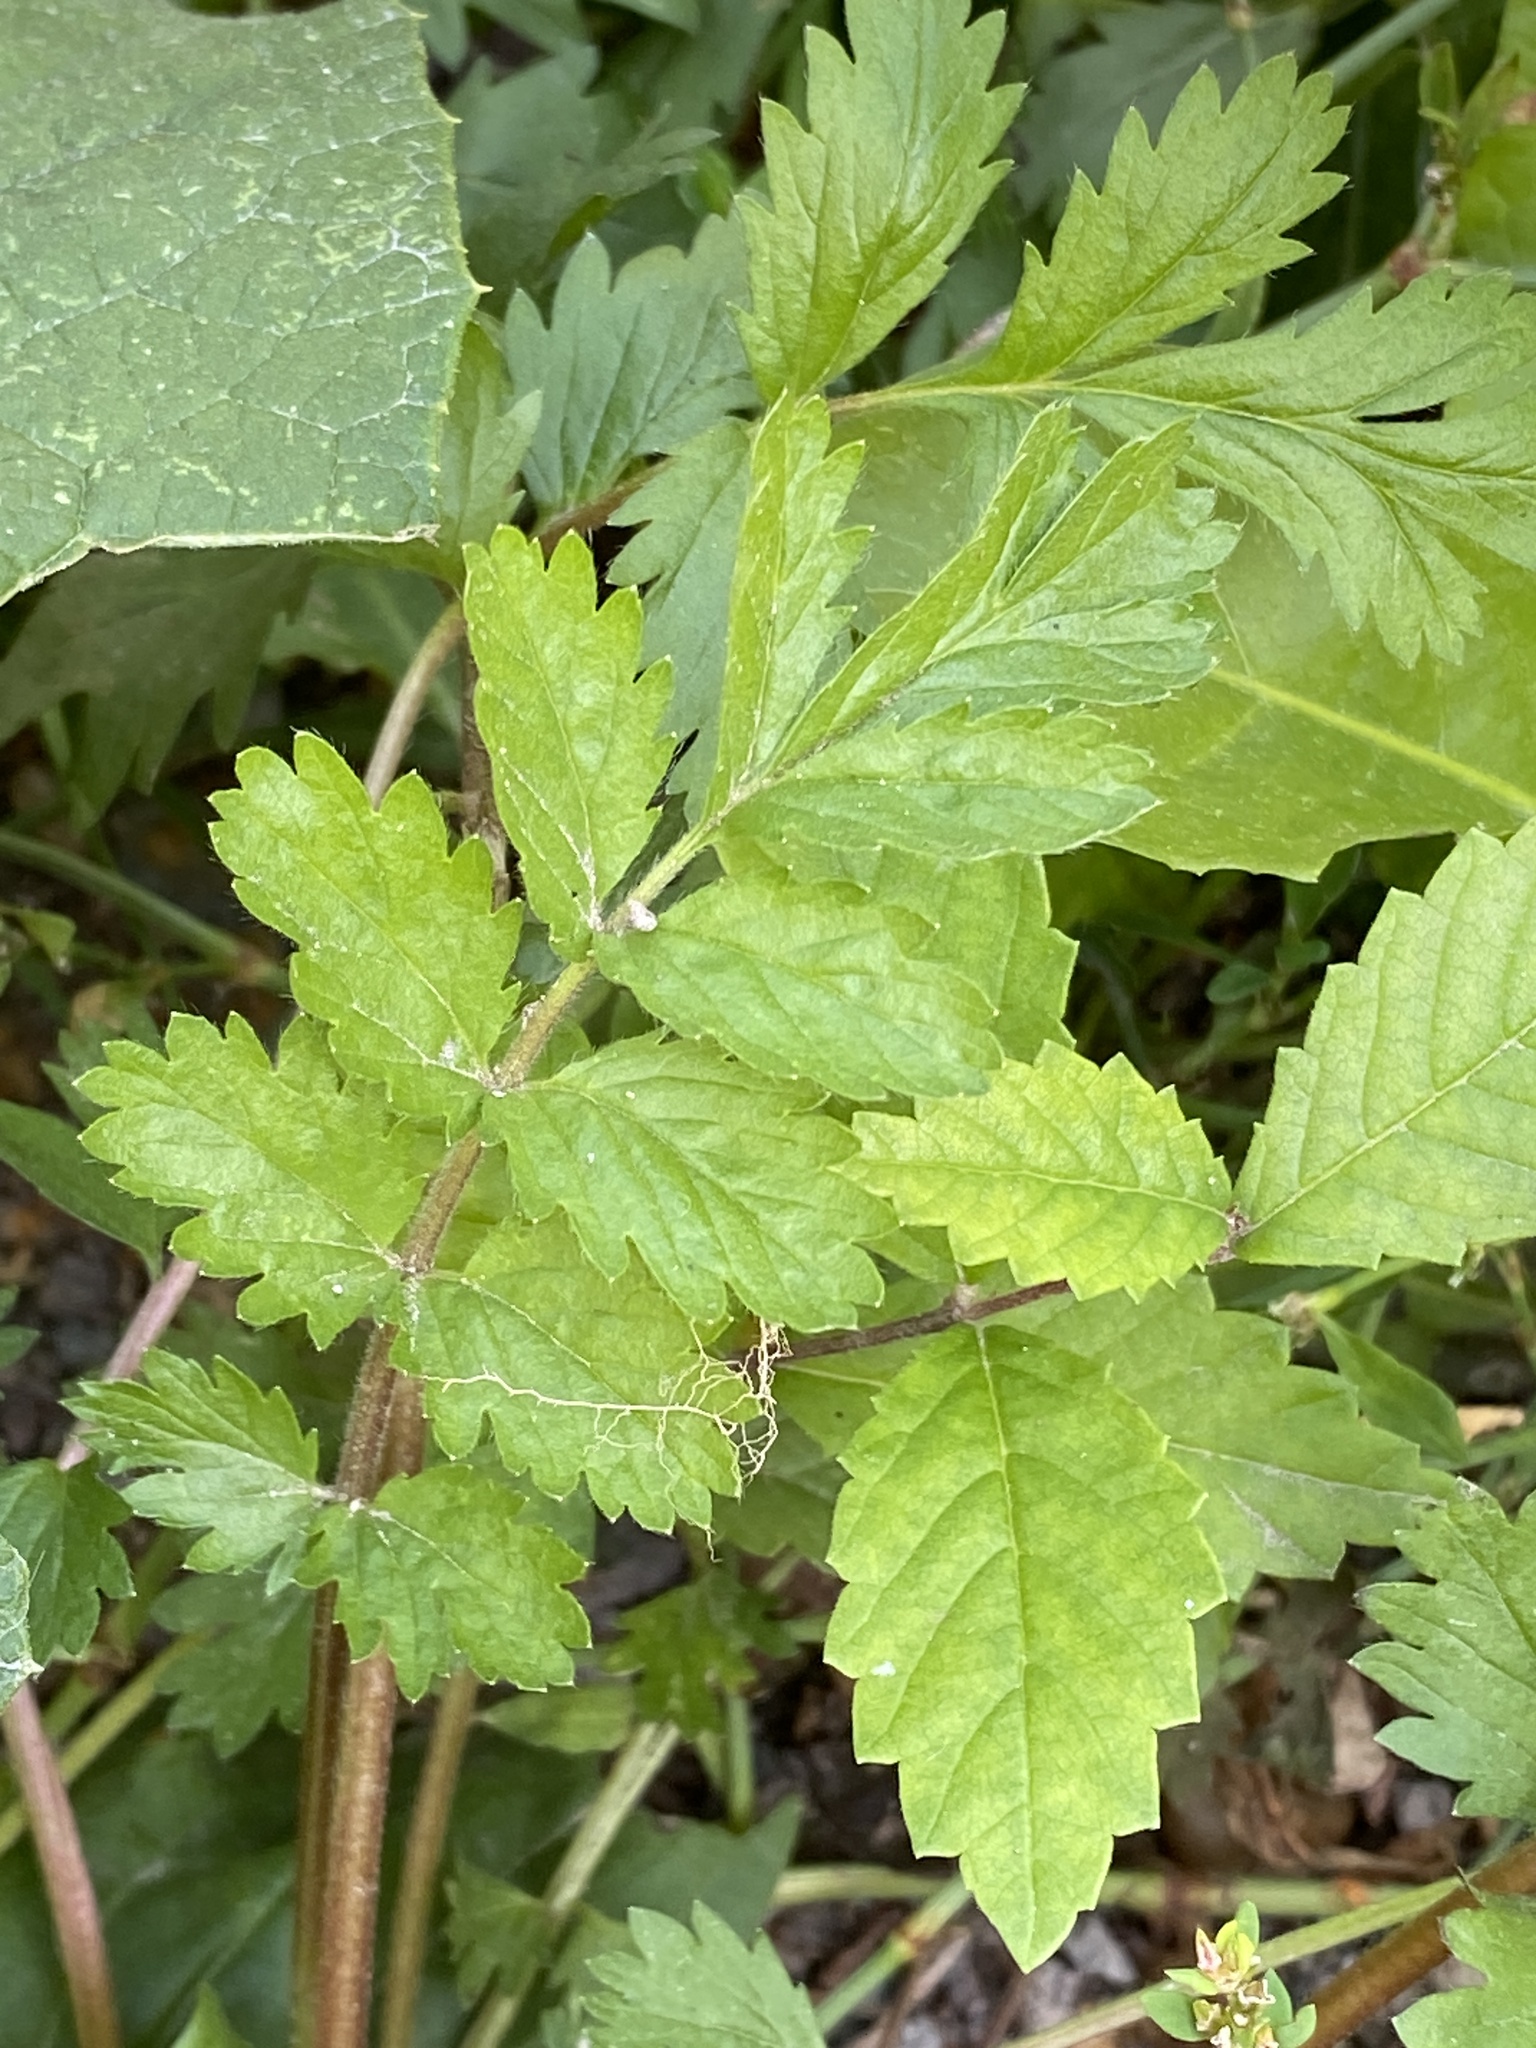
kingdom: Plantae
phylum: Tracheophyta
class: Magnoliopsida
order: Rosales
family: Rosaceae
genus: Potentilla
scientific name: Potentilla supina
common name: Prostrate cinquefoil
